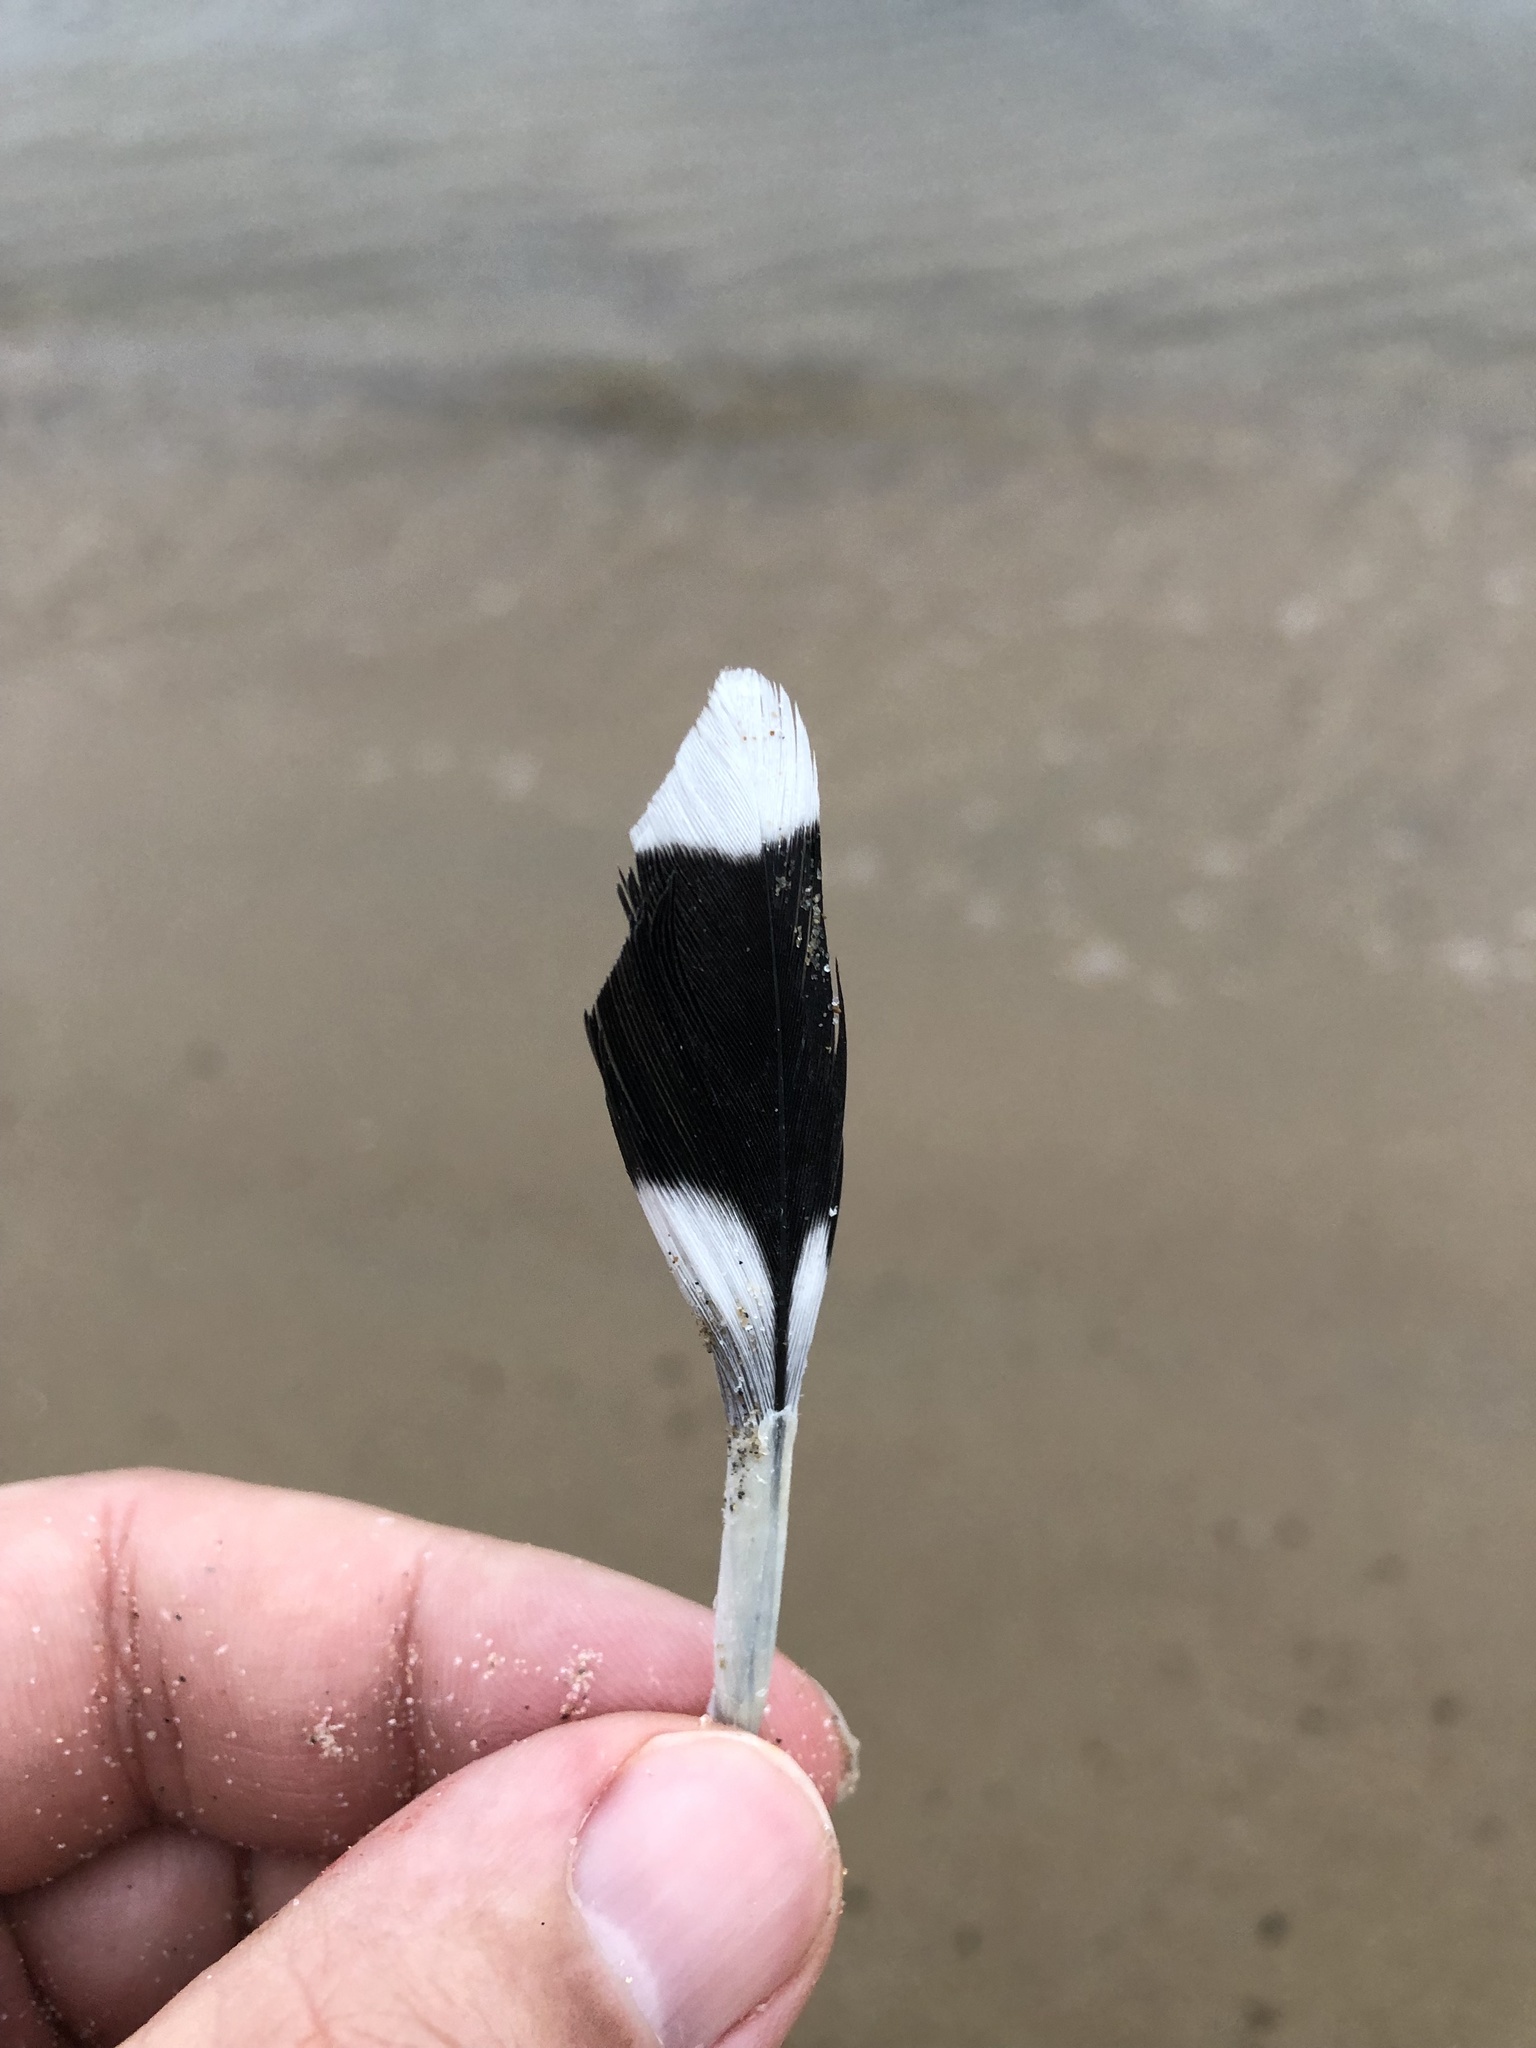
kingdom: Animalia
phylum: Chordata
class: Aves
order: Charadriiformes
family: Laridae
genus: Larus
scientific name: Larus delawarensis
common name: Ring-billed gull
